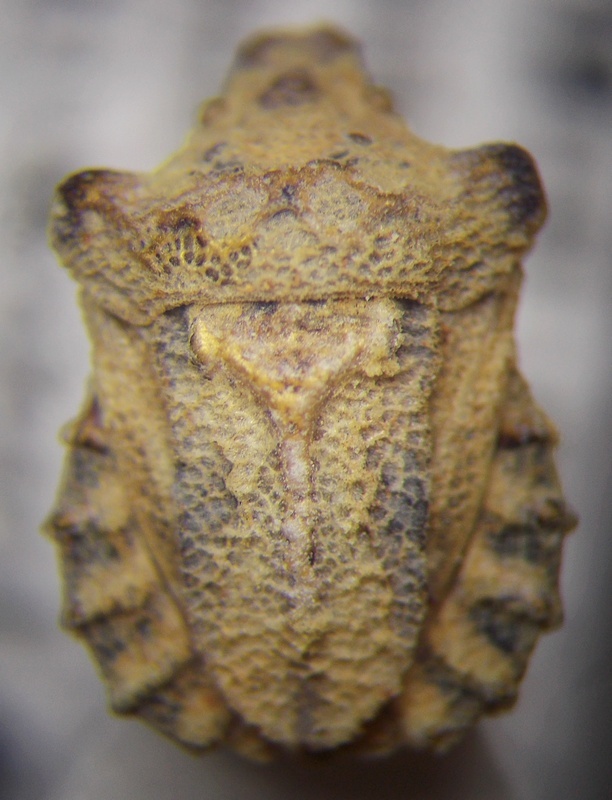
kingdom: Animalia
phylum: Arthropoda
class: Insecta
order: Hemiptera
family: Pentatomidae
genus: Leprosoma
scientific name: Leprosoma tuberculatum
